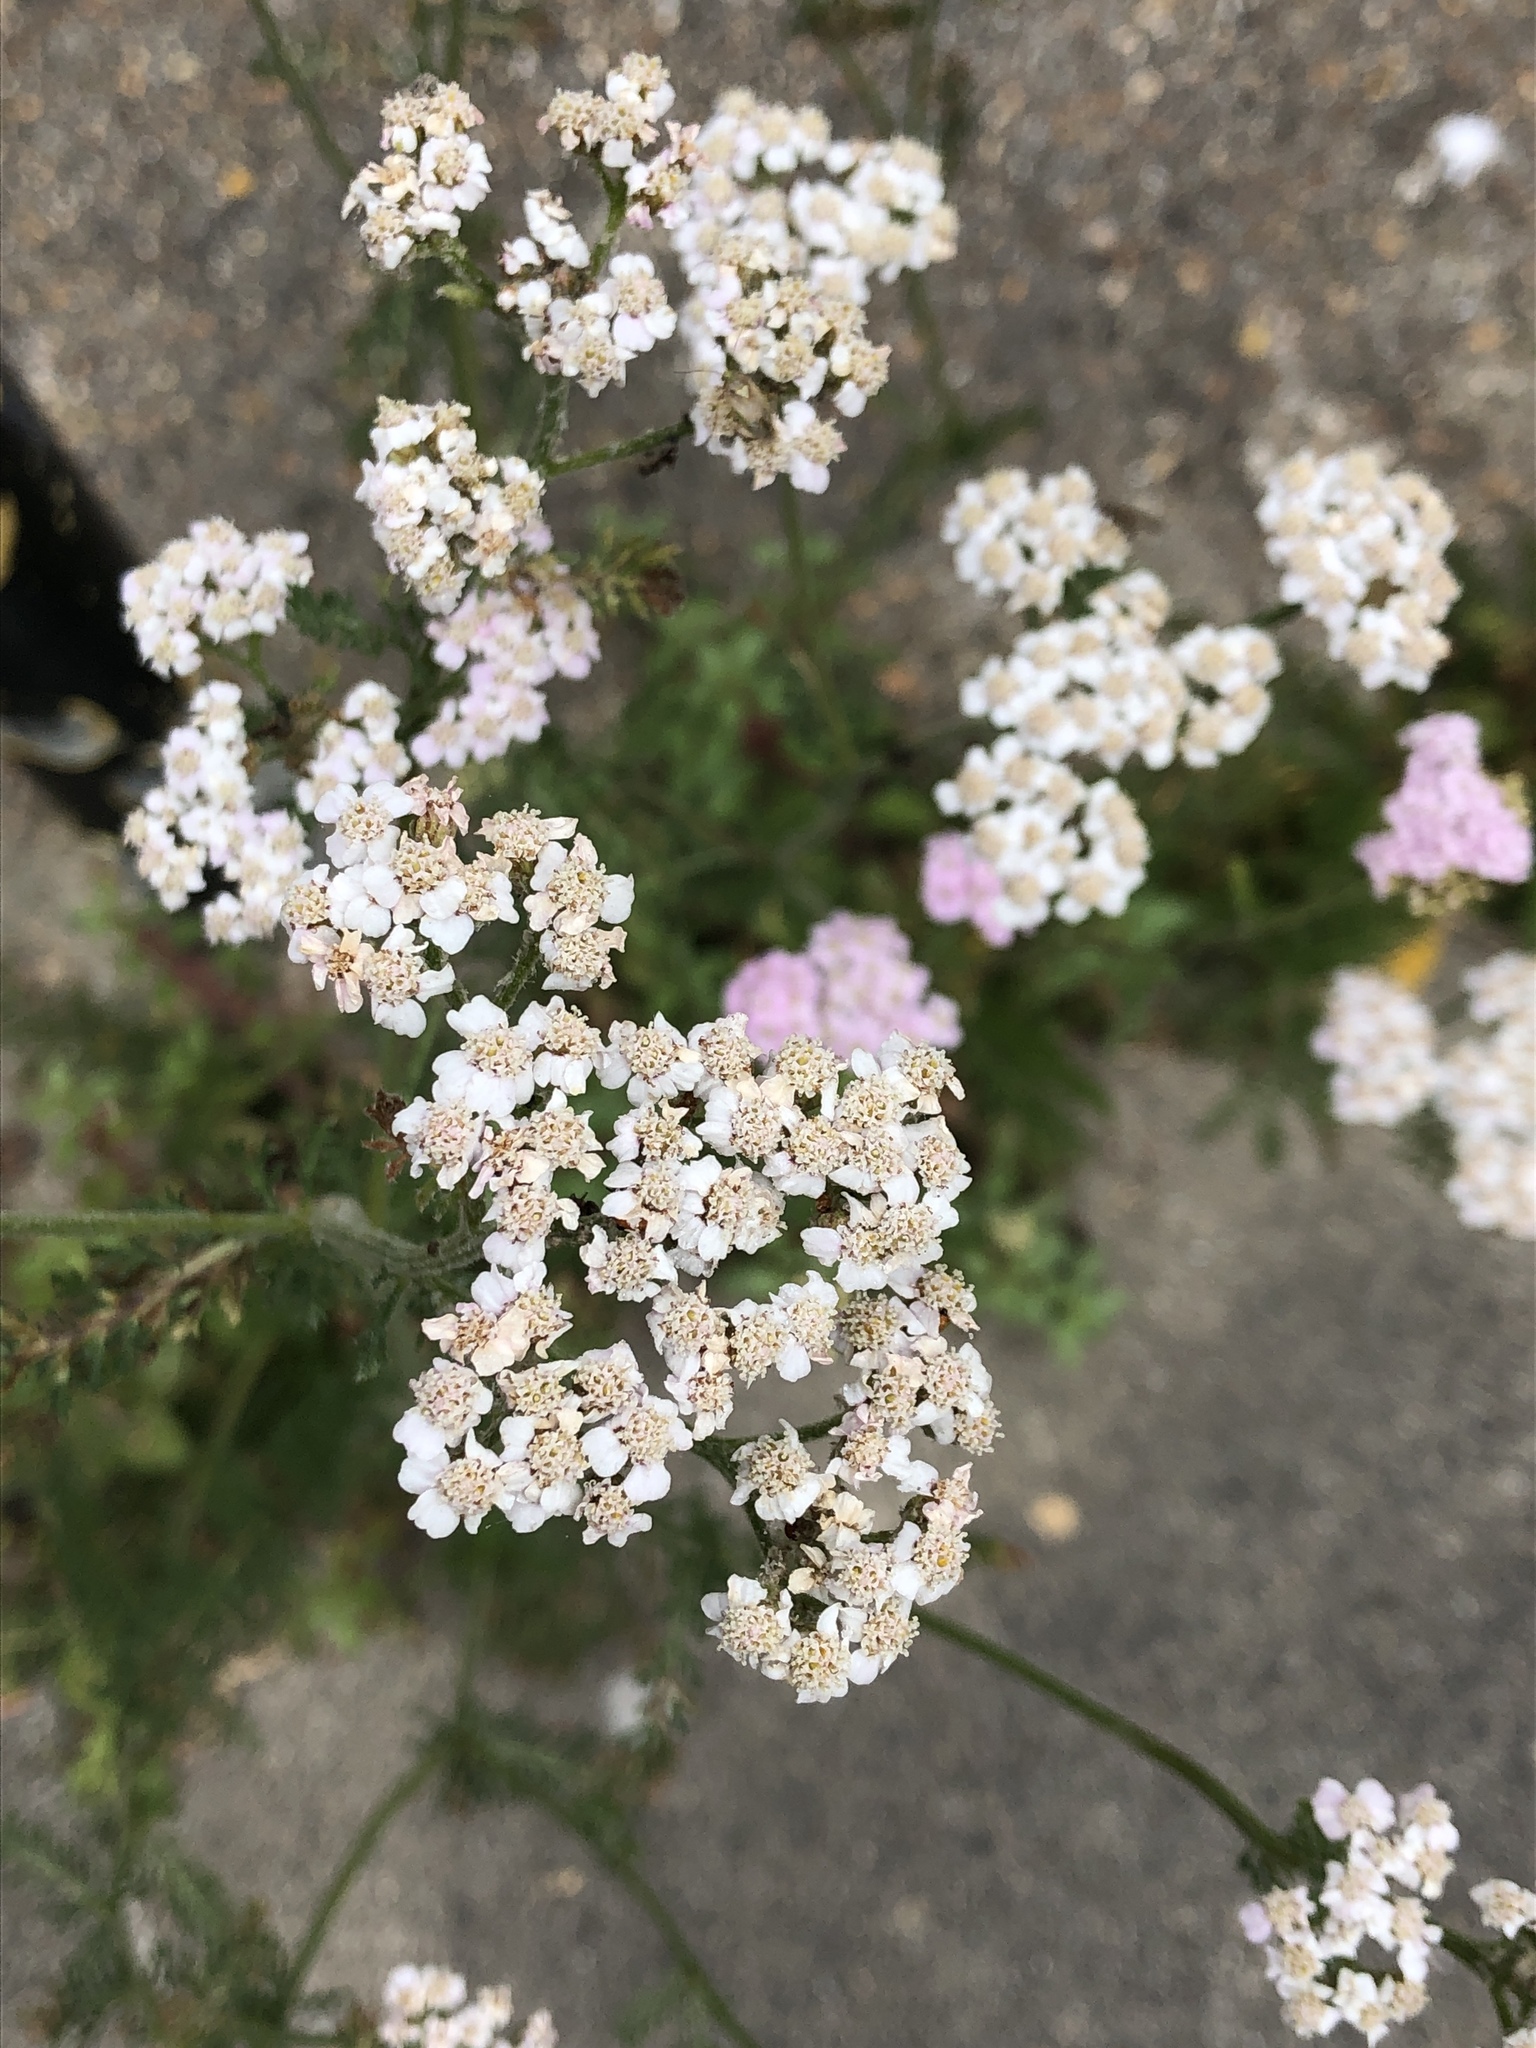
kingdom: Plantae
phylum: Tracheophyta
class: Magnoliopsida
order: Asterales
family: Asteraceae
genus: Achillea
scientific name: Achillea millefolium
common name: Yarrow
